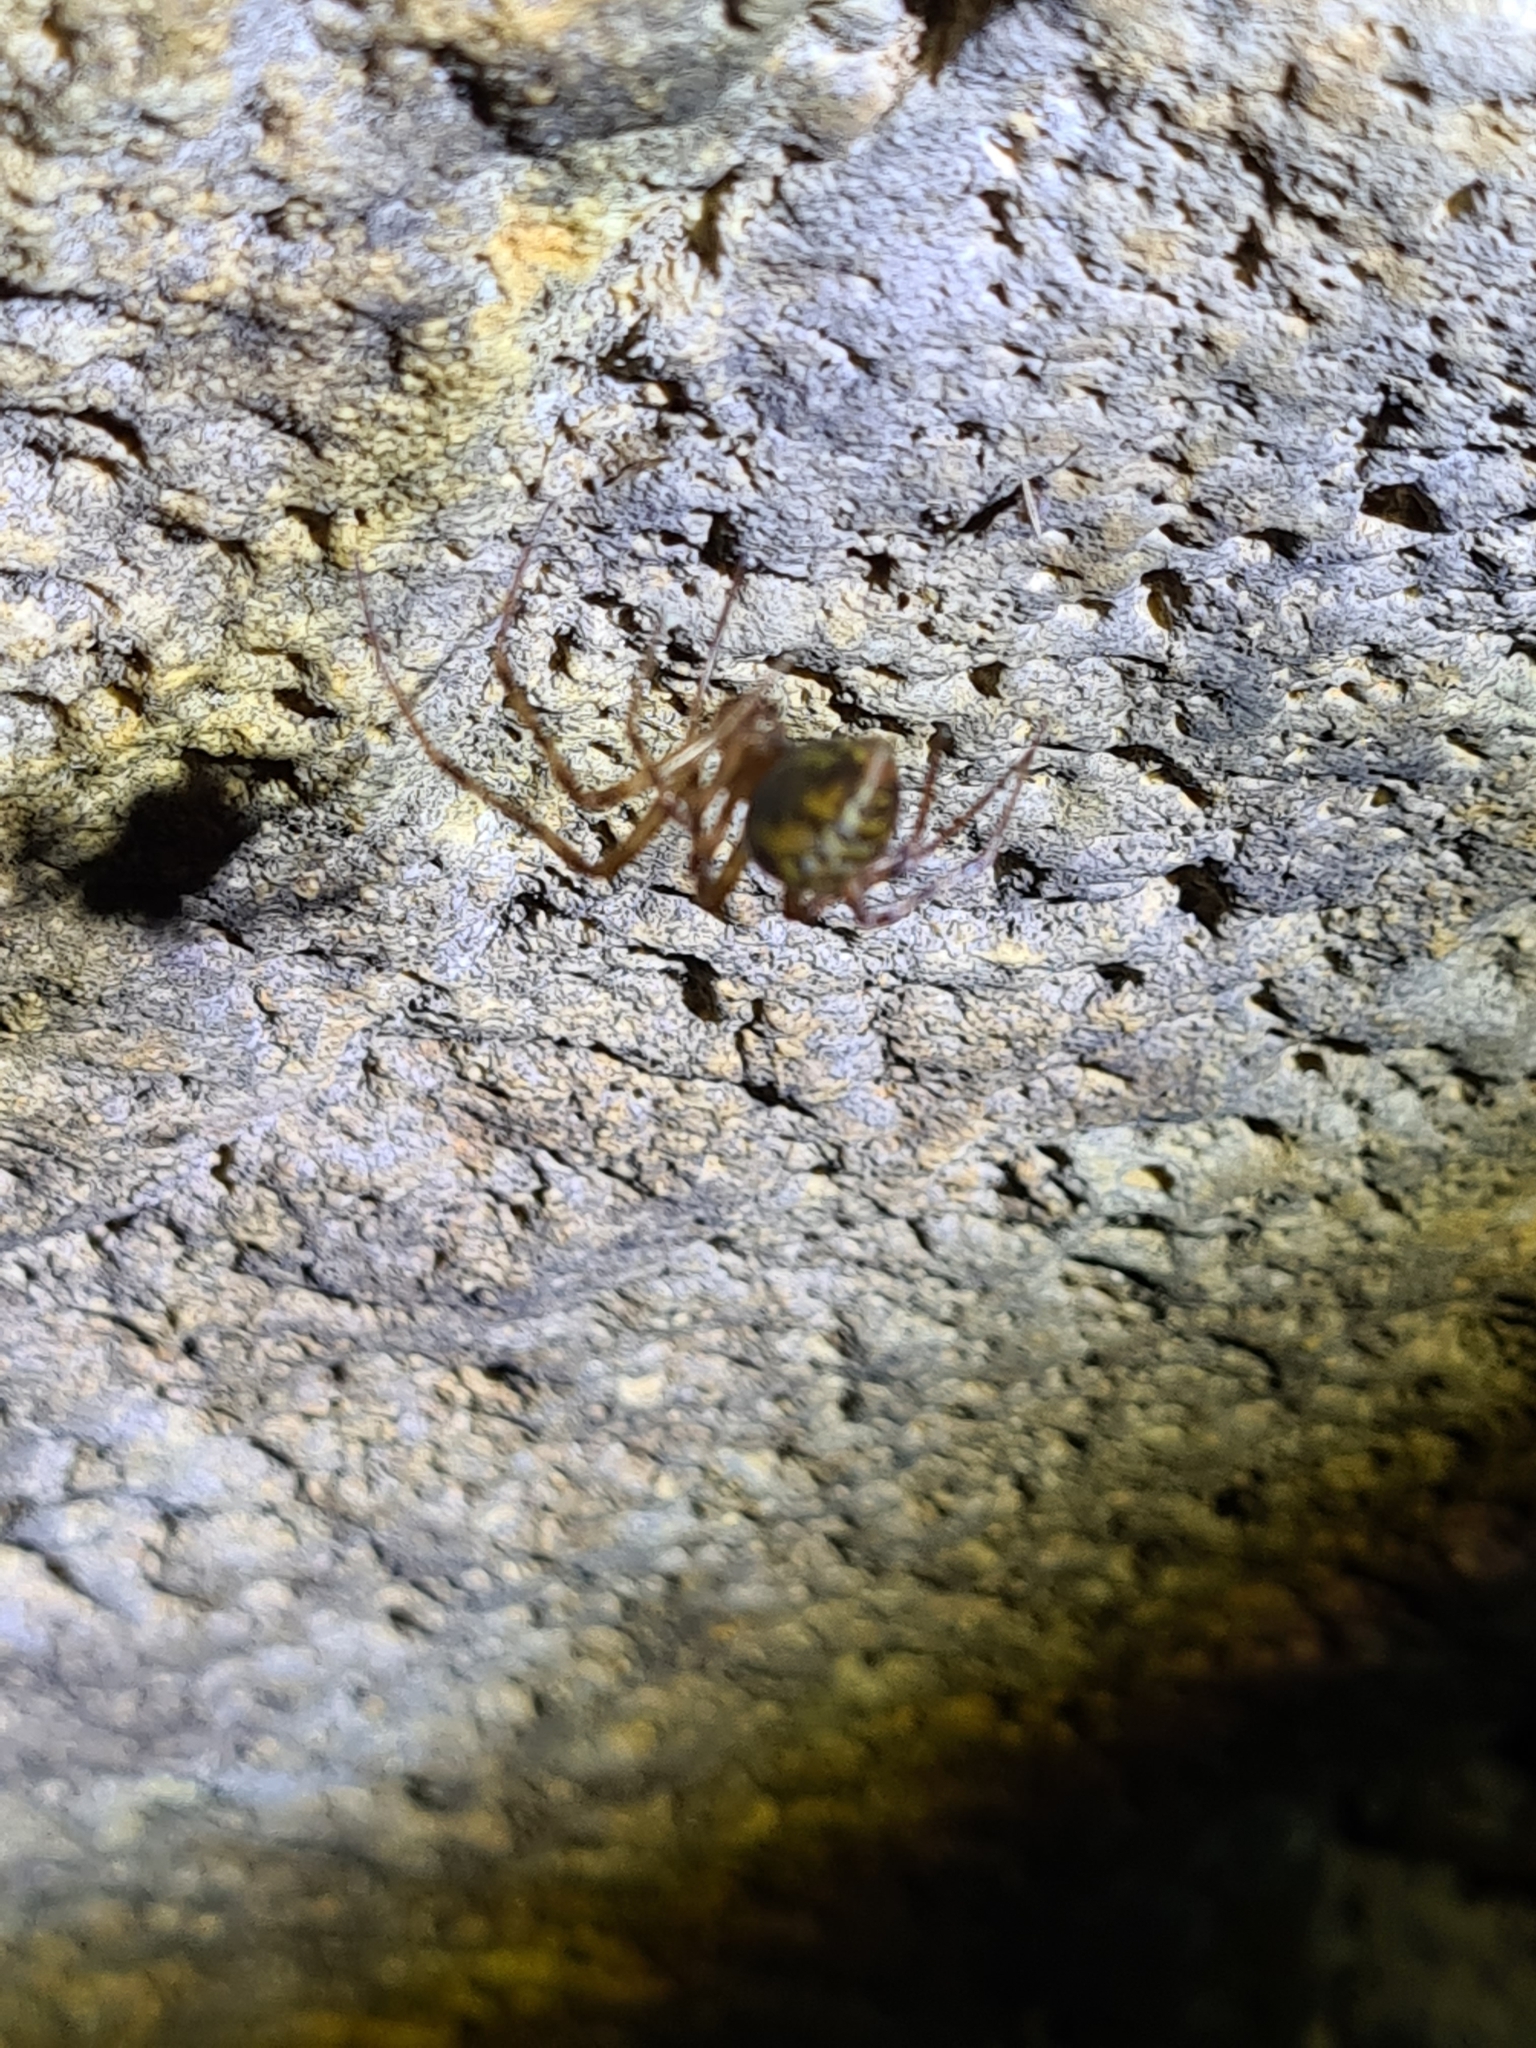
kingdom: Animalia
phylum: Arthropoda
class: Arachnida
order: Araneae
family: Tetragnathidae
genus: Meta
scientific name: Meta menardi
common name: Cave spider
